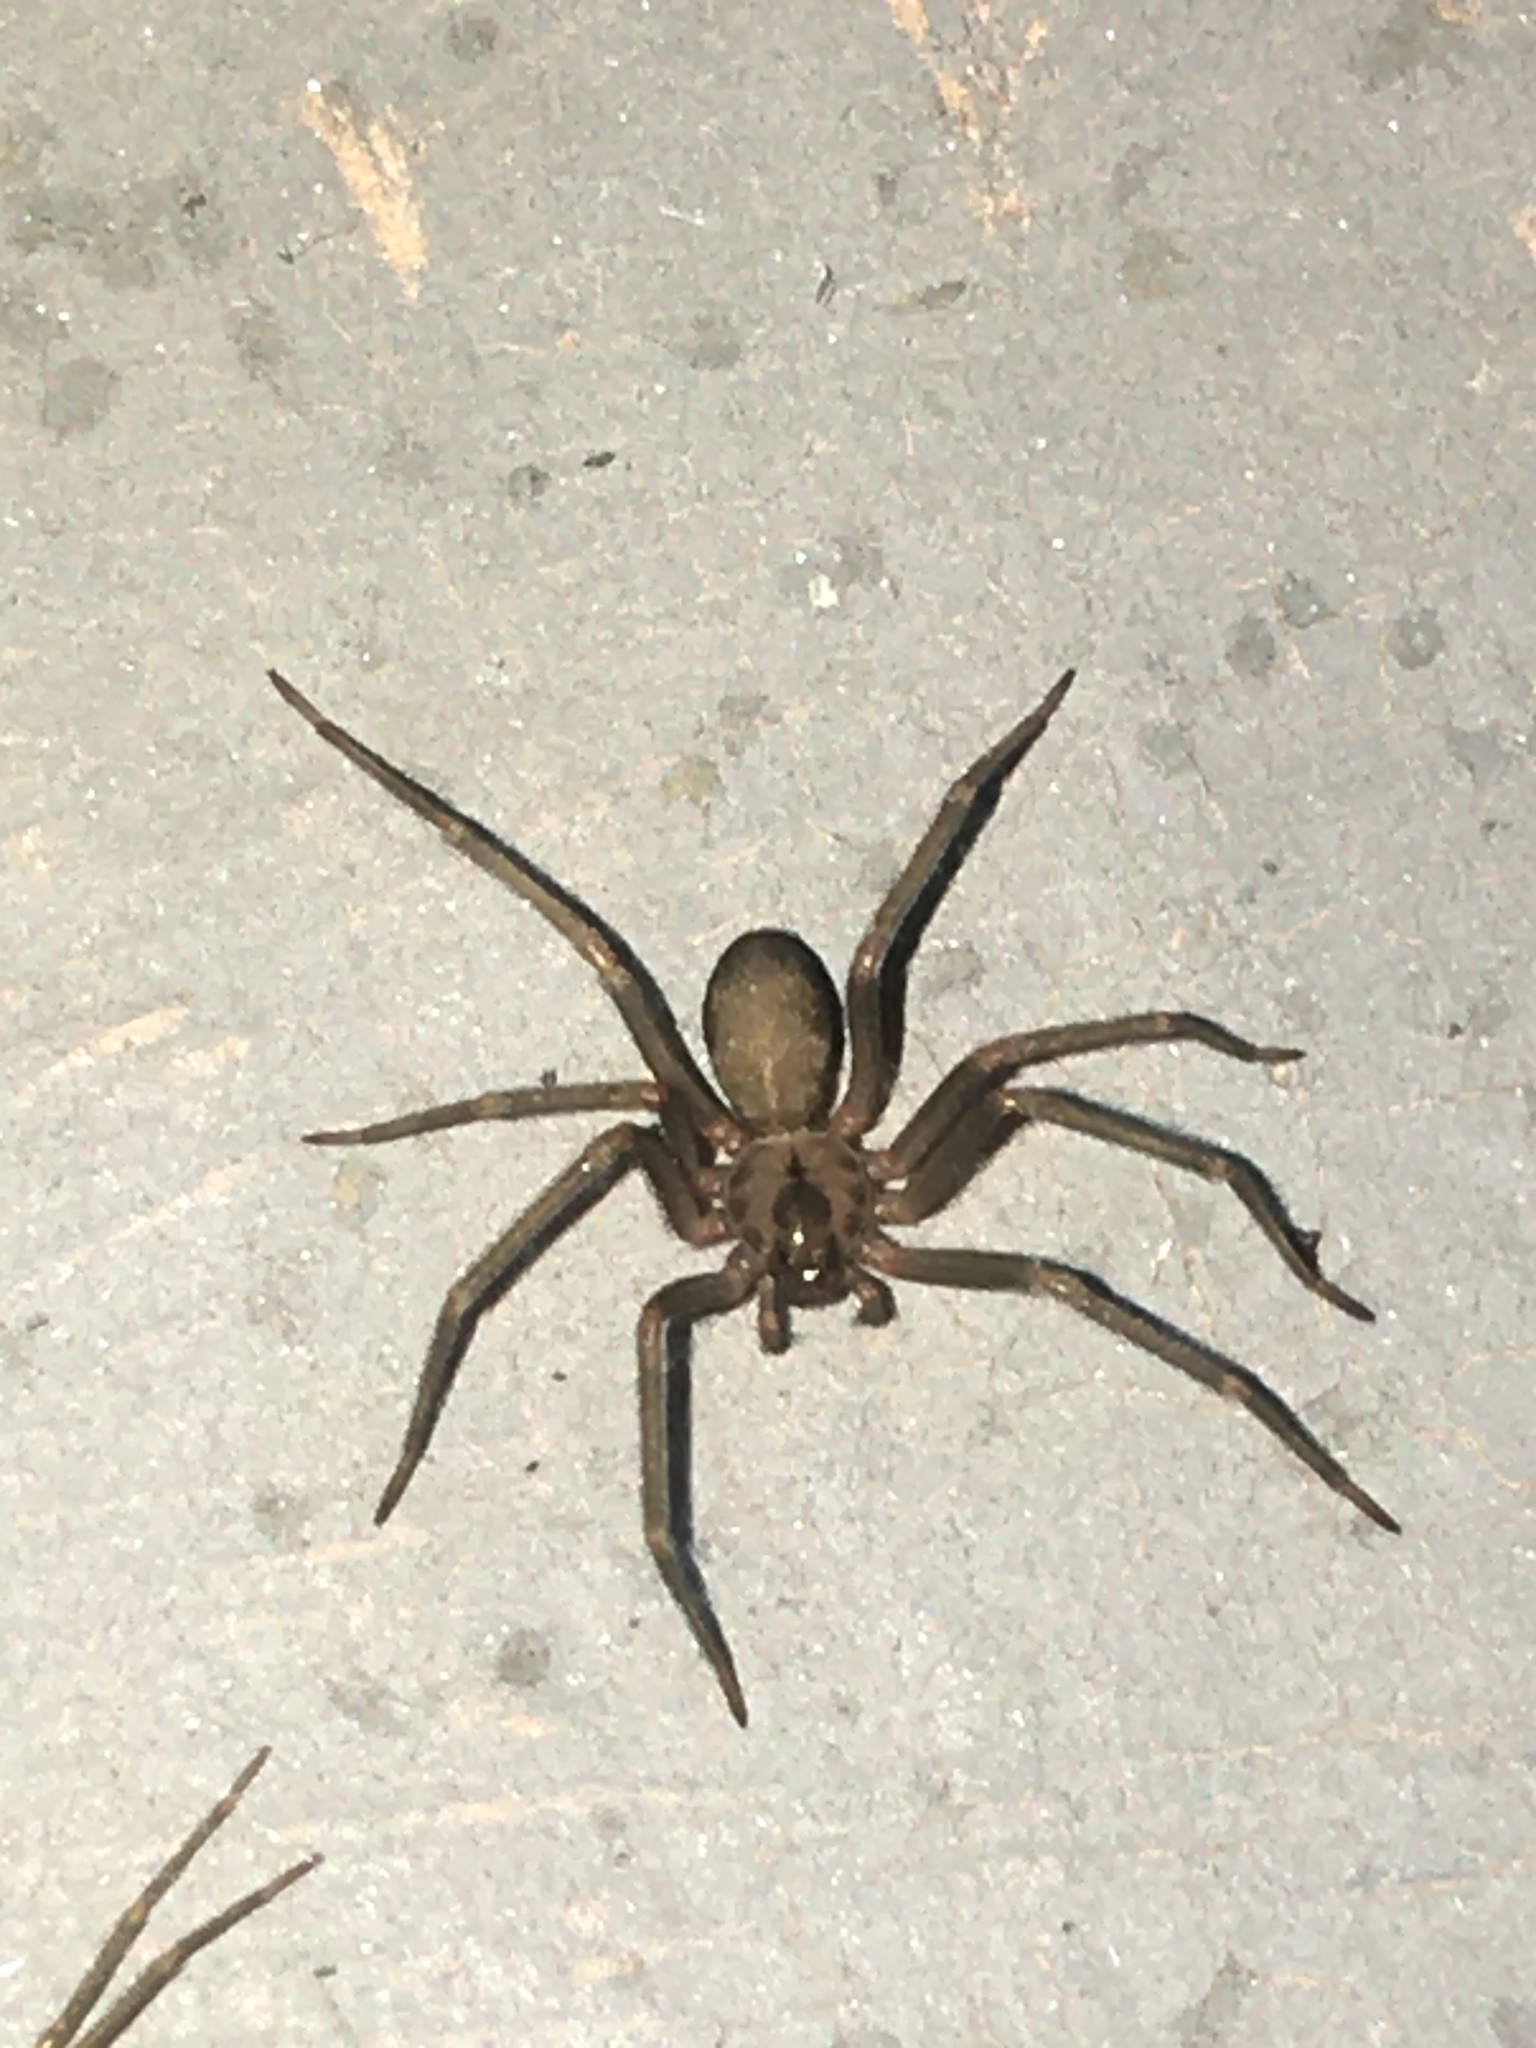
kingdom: Animalia
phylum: Arthropoda
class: Arachnida
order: Araneae
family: Sicariidae
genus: Loxosceles
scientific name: Loxosceles reclusa
